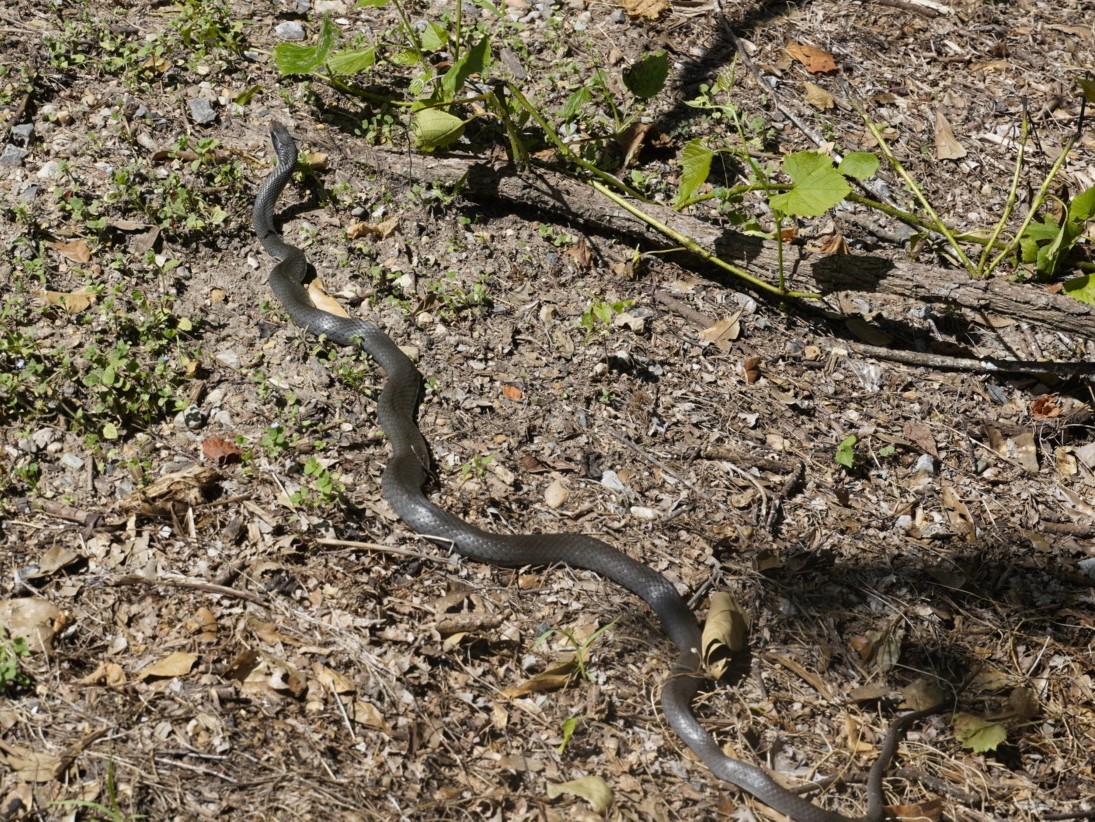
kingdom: Animalia
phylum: Chordata
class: Squamata
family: Colubridae
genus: Coluber
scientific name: Coluber constrictor
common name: Eastern racer
